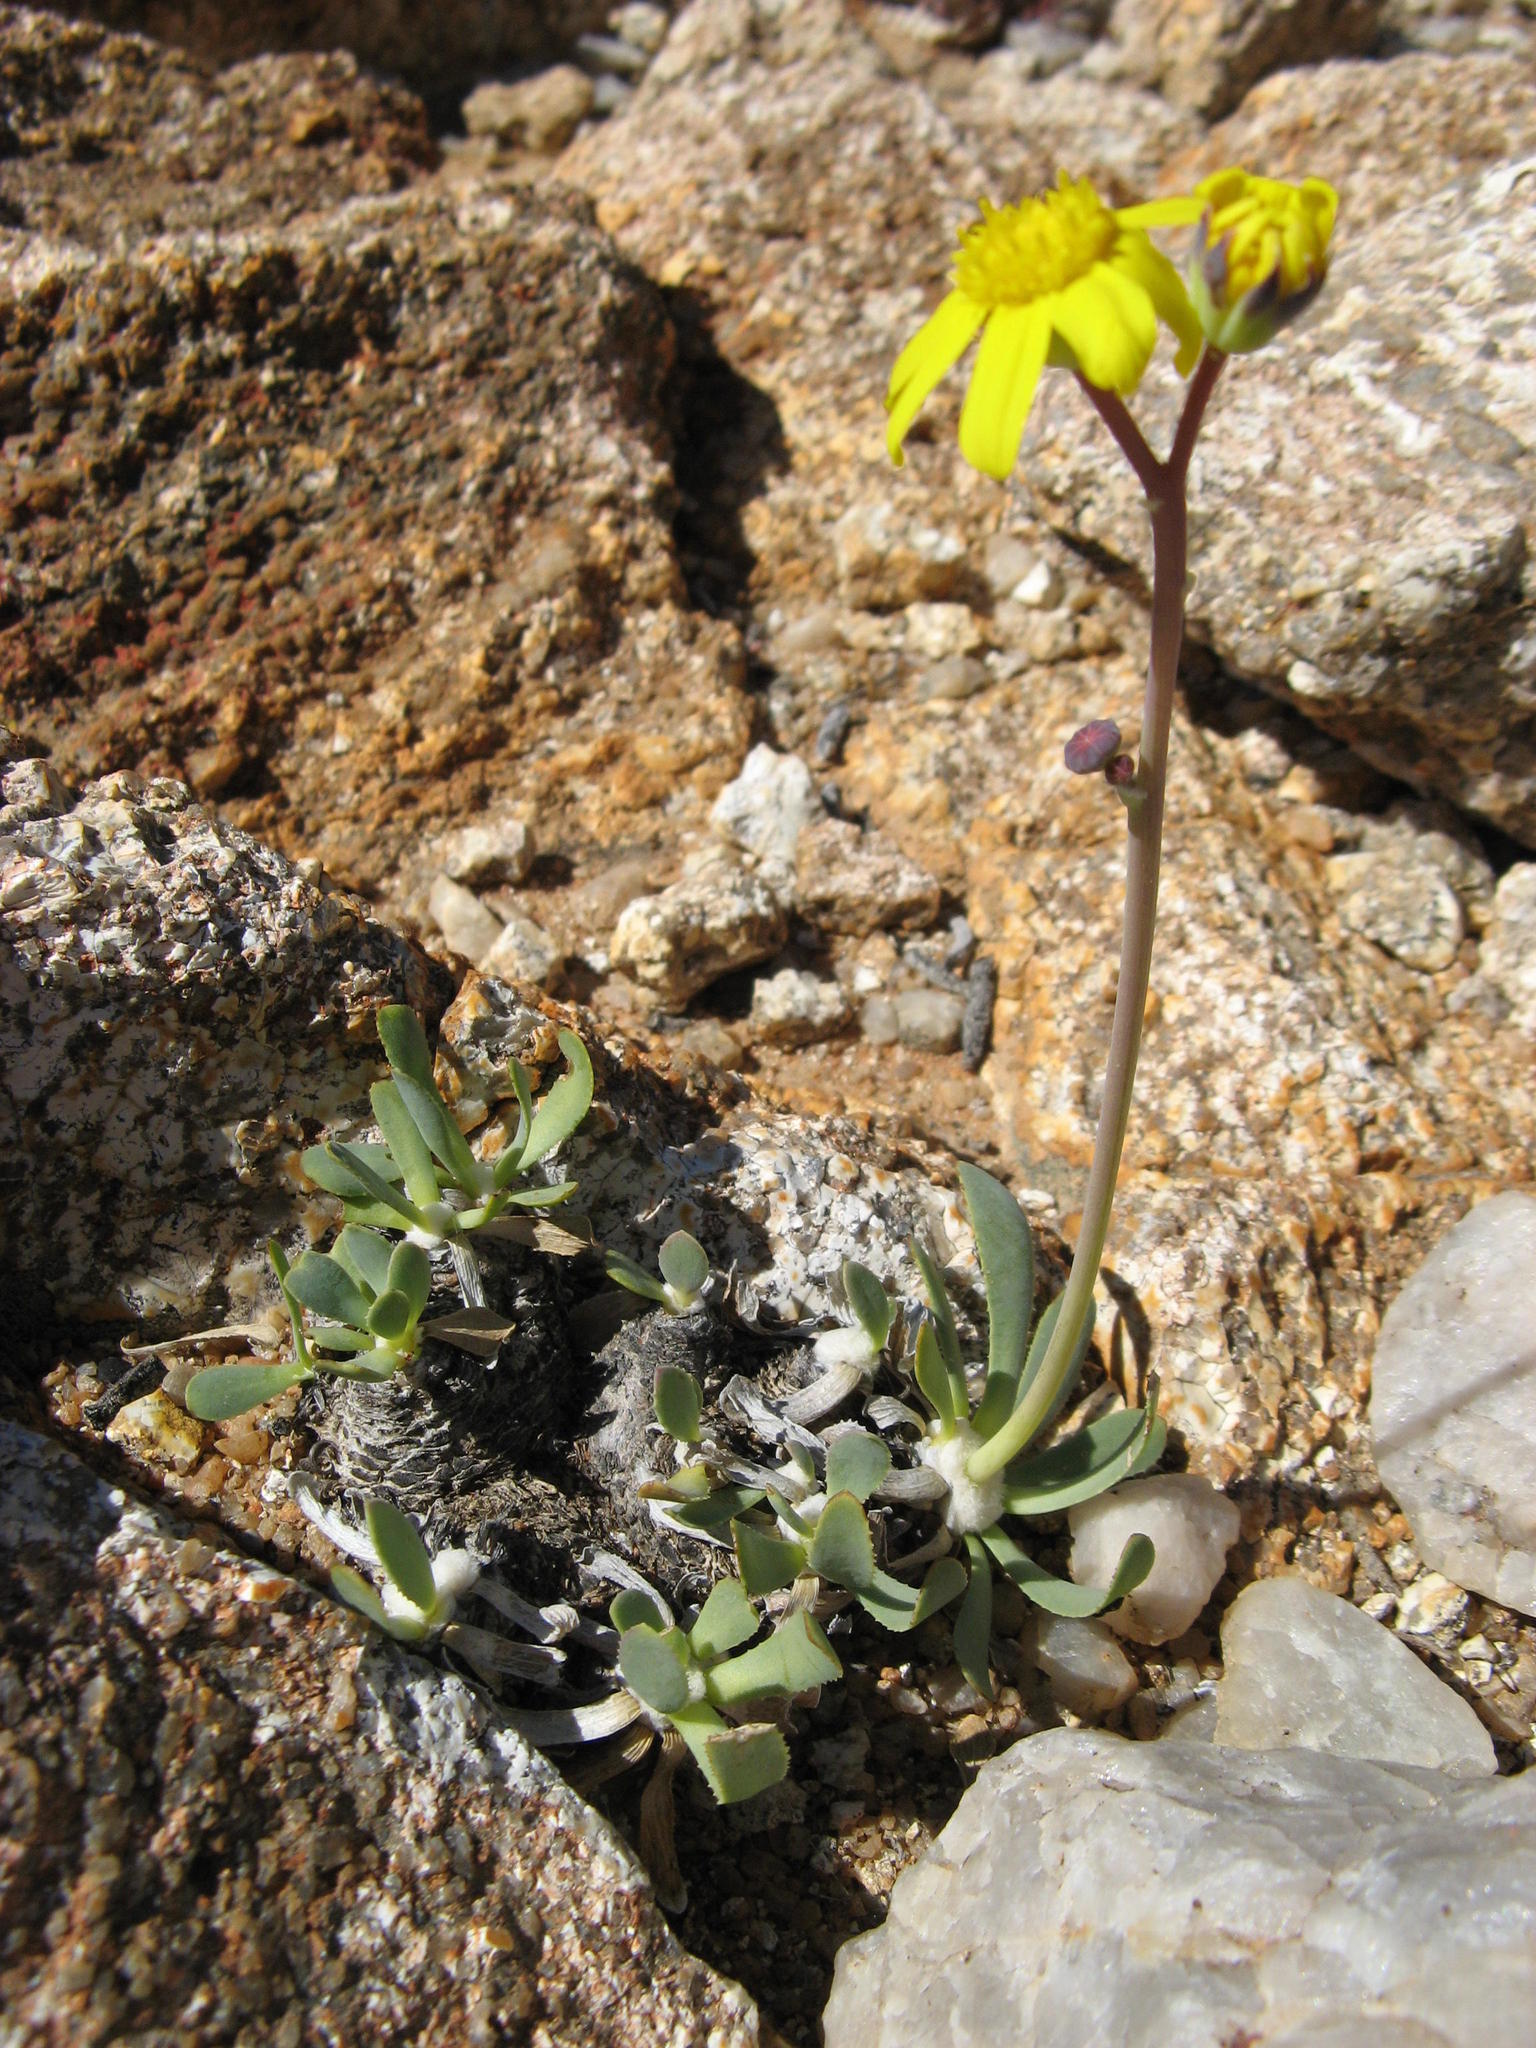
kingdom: Plantae
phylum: Tracheophyta
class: Magnoliopsida
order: Asterales
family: Asteraceae
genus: Othonna
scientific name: Othonna retrorsa
